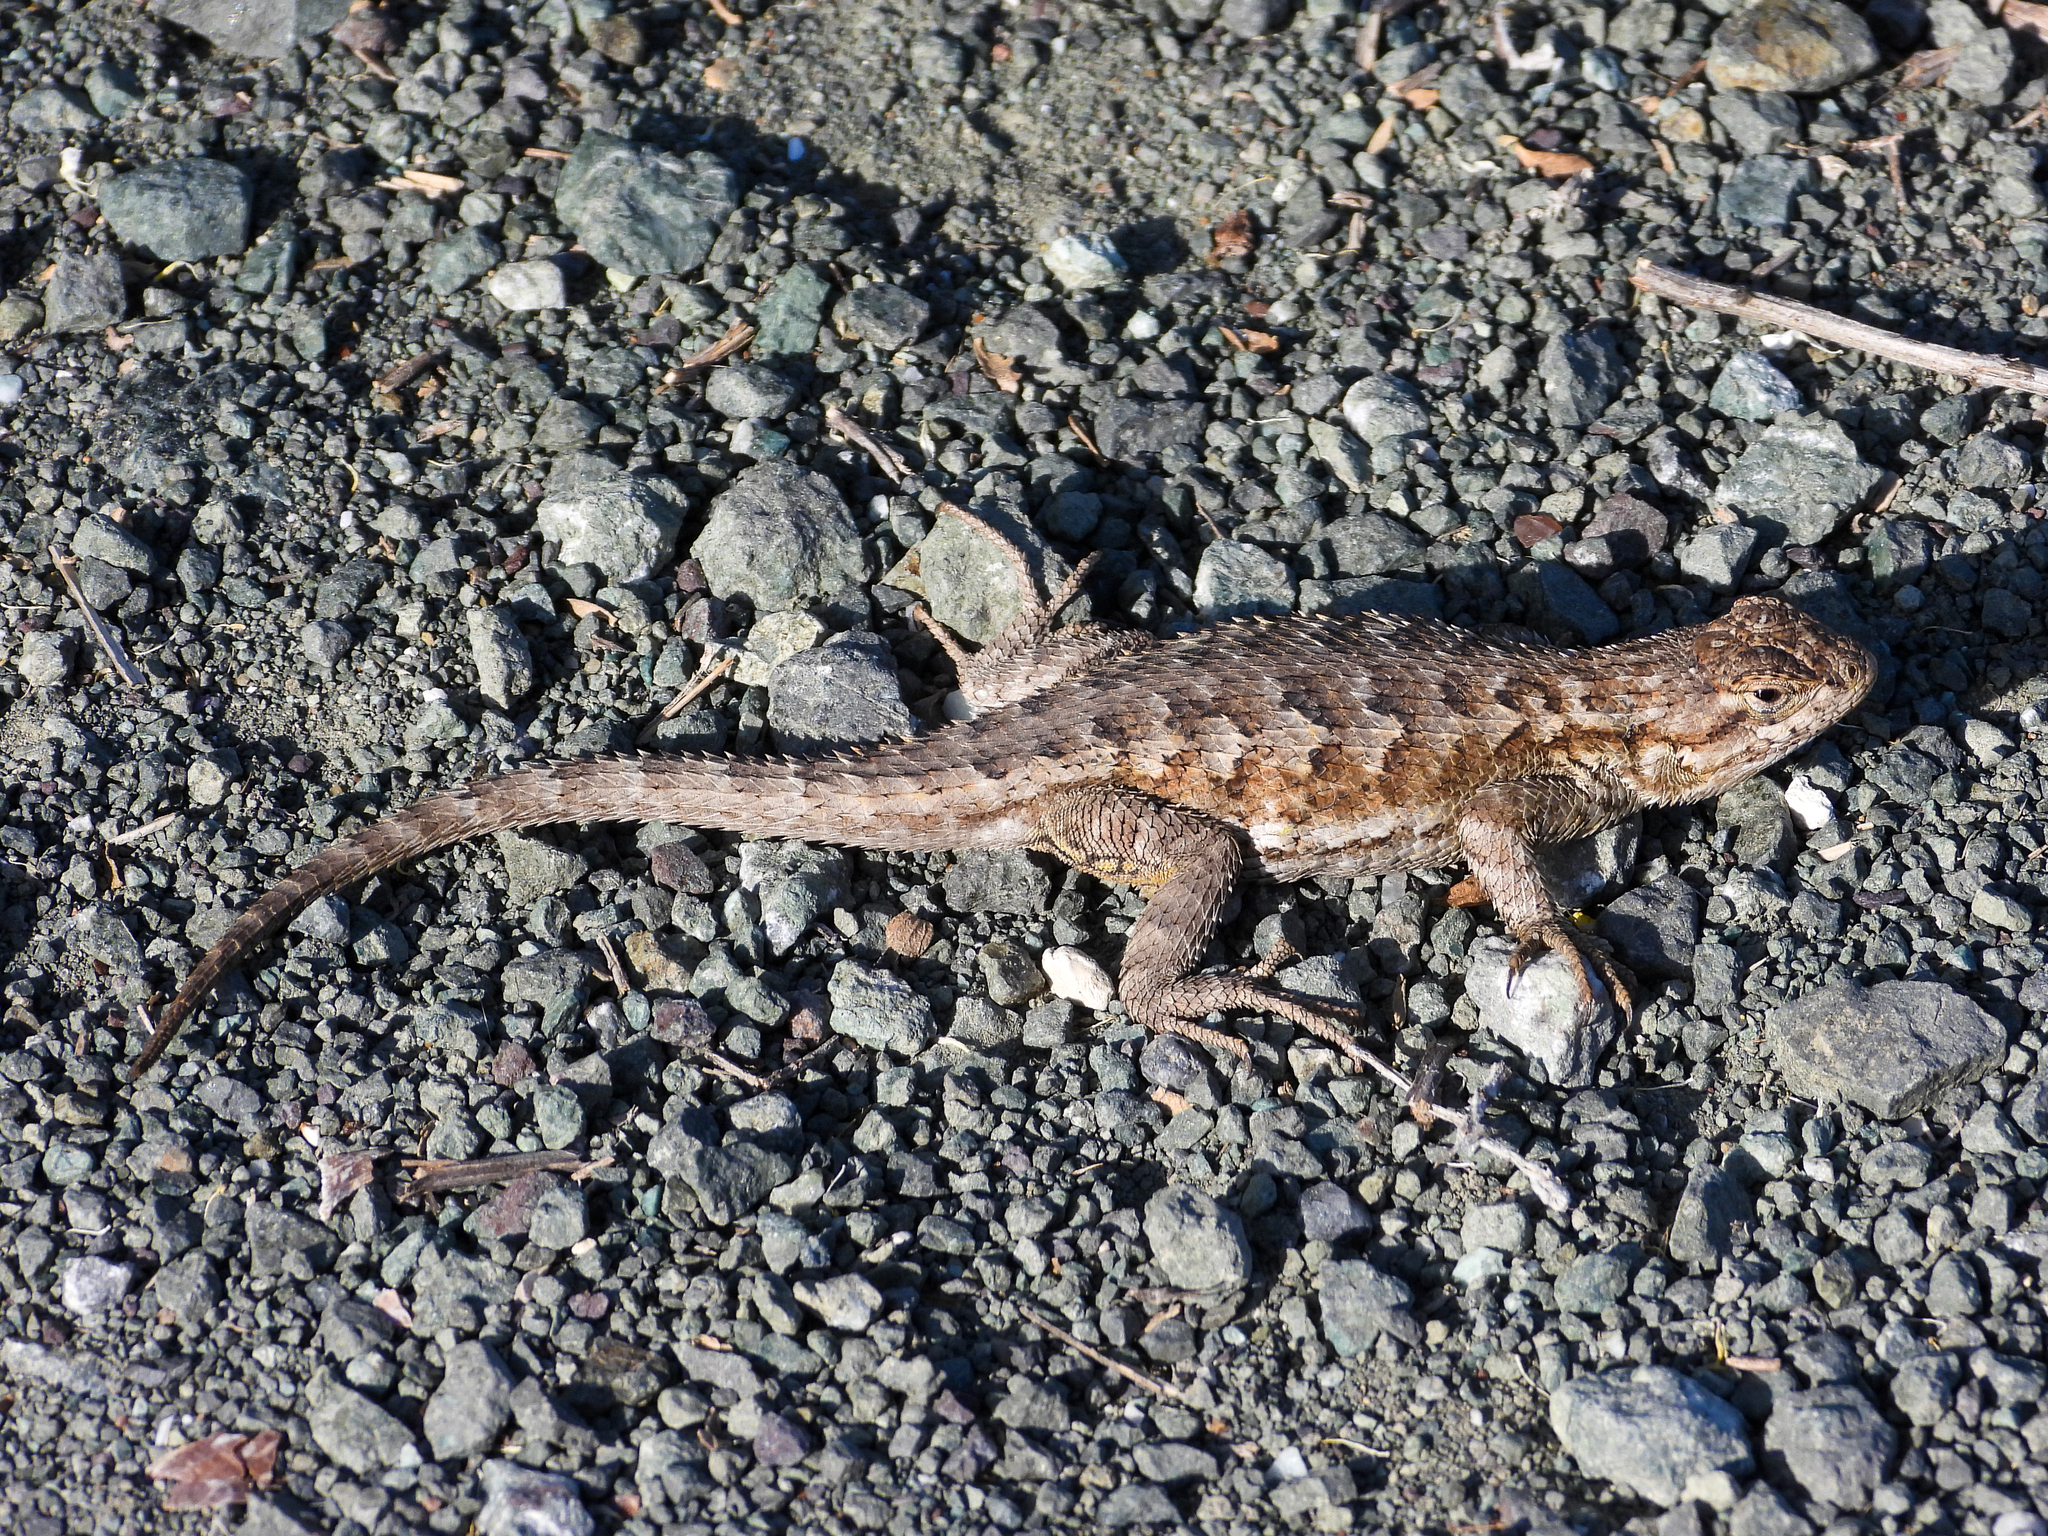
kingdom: Animalia
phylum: Chordata
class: Squamata
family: Phrynosomatidae
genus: Sceloporus
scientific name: Sceloporus occidentalis
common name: Western fence lizard
